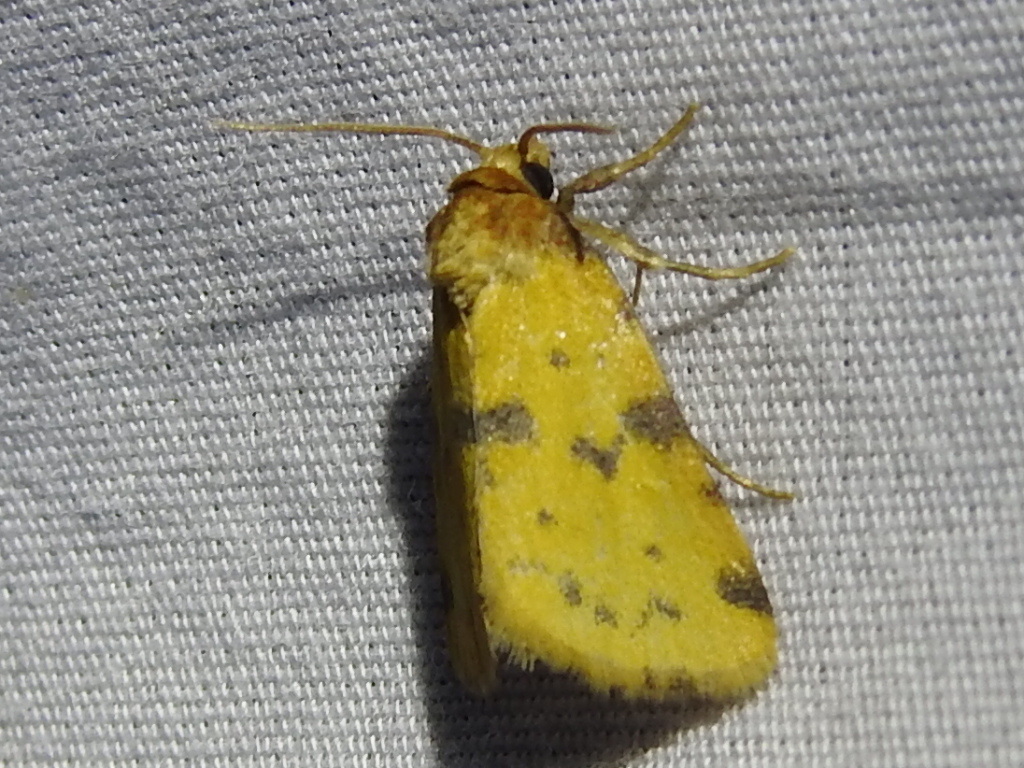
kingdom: Animalia
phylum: Arthropoda
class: Insecta
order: Lepidoptera
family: Noctuidae
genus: Azenia
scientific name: Azenia obtusa
